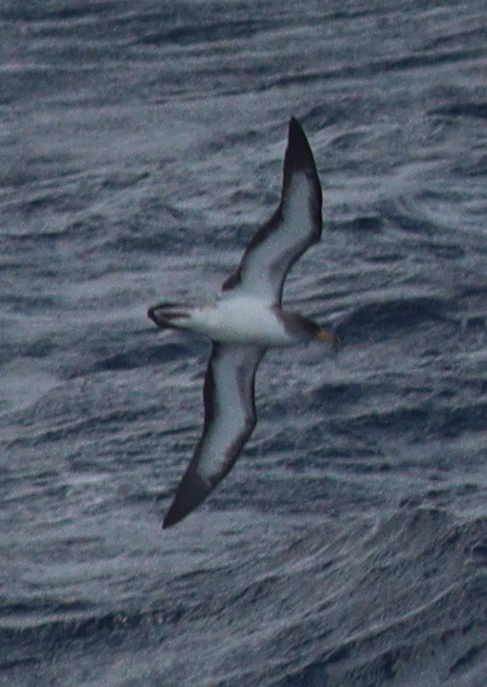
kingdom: Animalia
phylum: Chordata
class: Aves
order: Procellariiformes
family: Procellariidae
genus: Calonectris
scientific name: Calonectris diomedea
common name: Cory's shearwater
